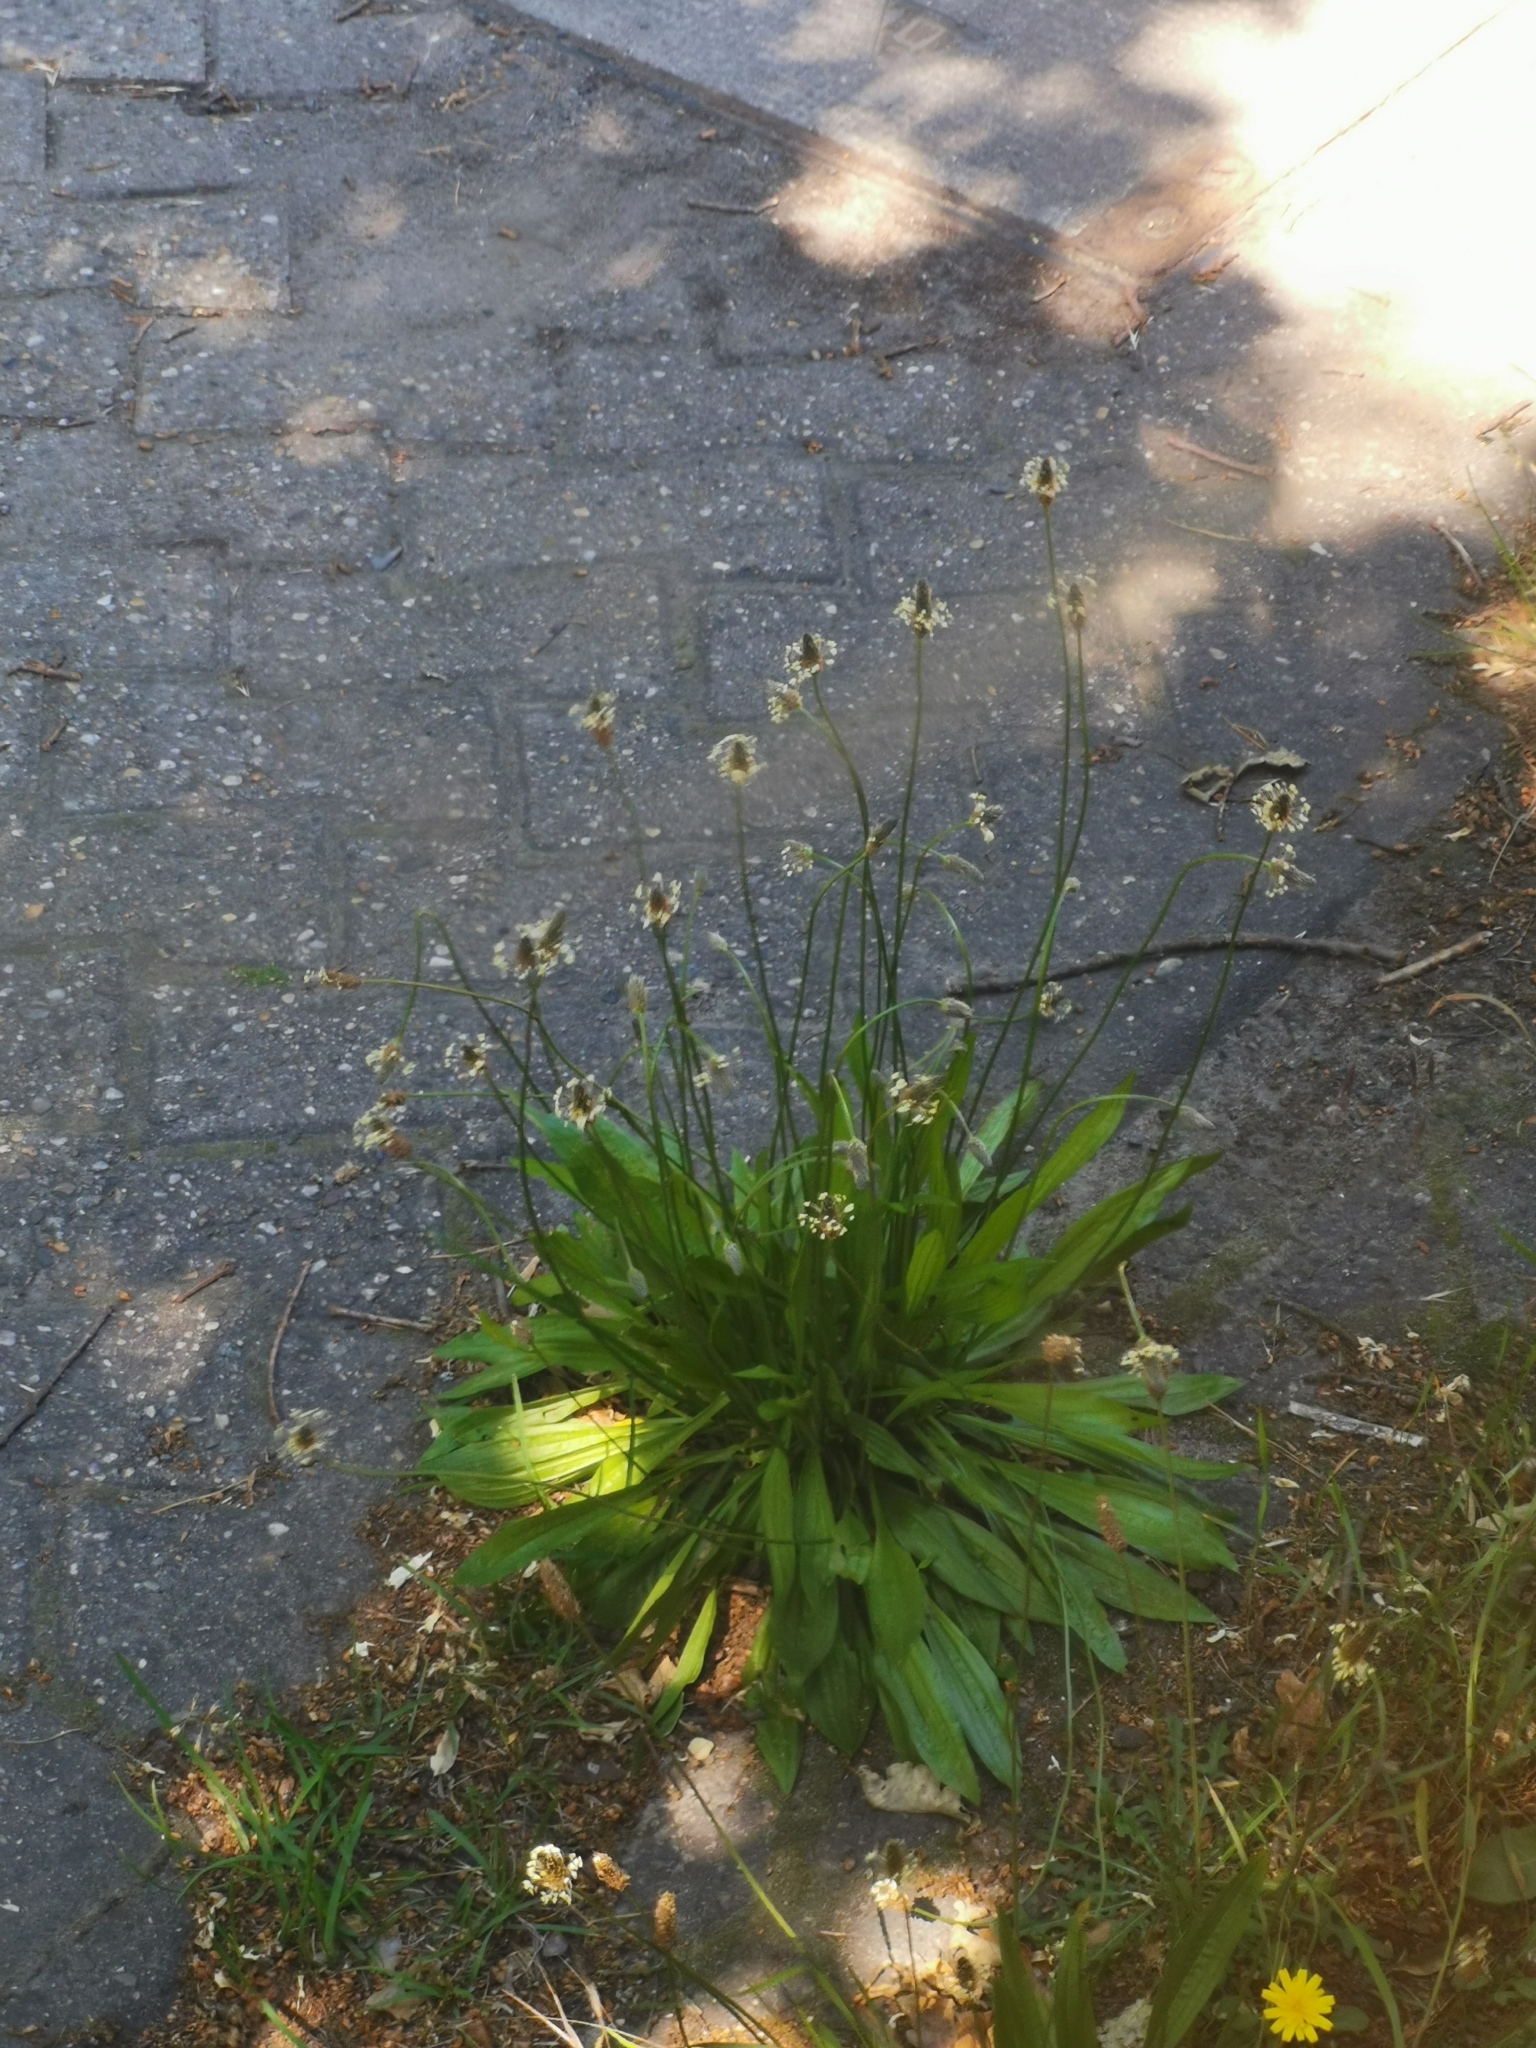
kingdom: Plantae
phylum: Tracheophyta
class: Magnoliopsida
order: Lamiales
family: Plantaginaceae
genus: Plantago
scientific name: Plantago lanceolata
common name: Ribwort plantain
